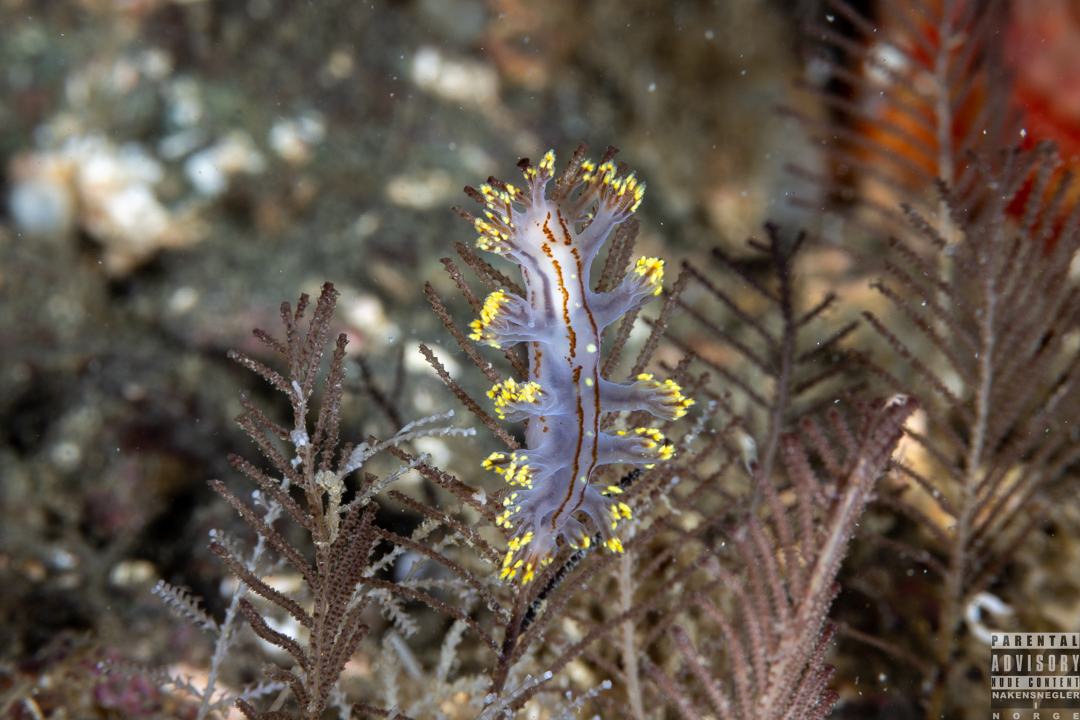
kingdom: Animalia
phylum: Mollusca
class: Gastropoda
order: Nudibranchia
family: Dendronotidae
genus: Dendronotus
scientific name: Dendronotus yrjargul
